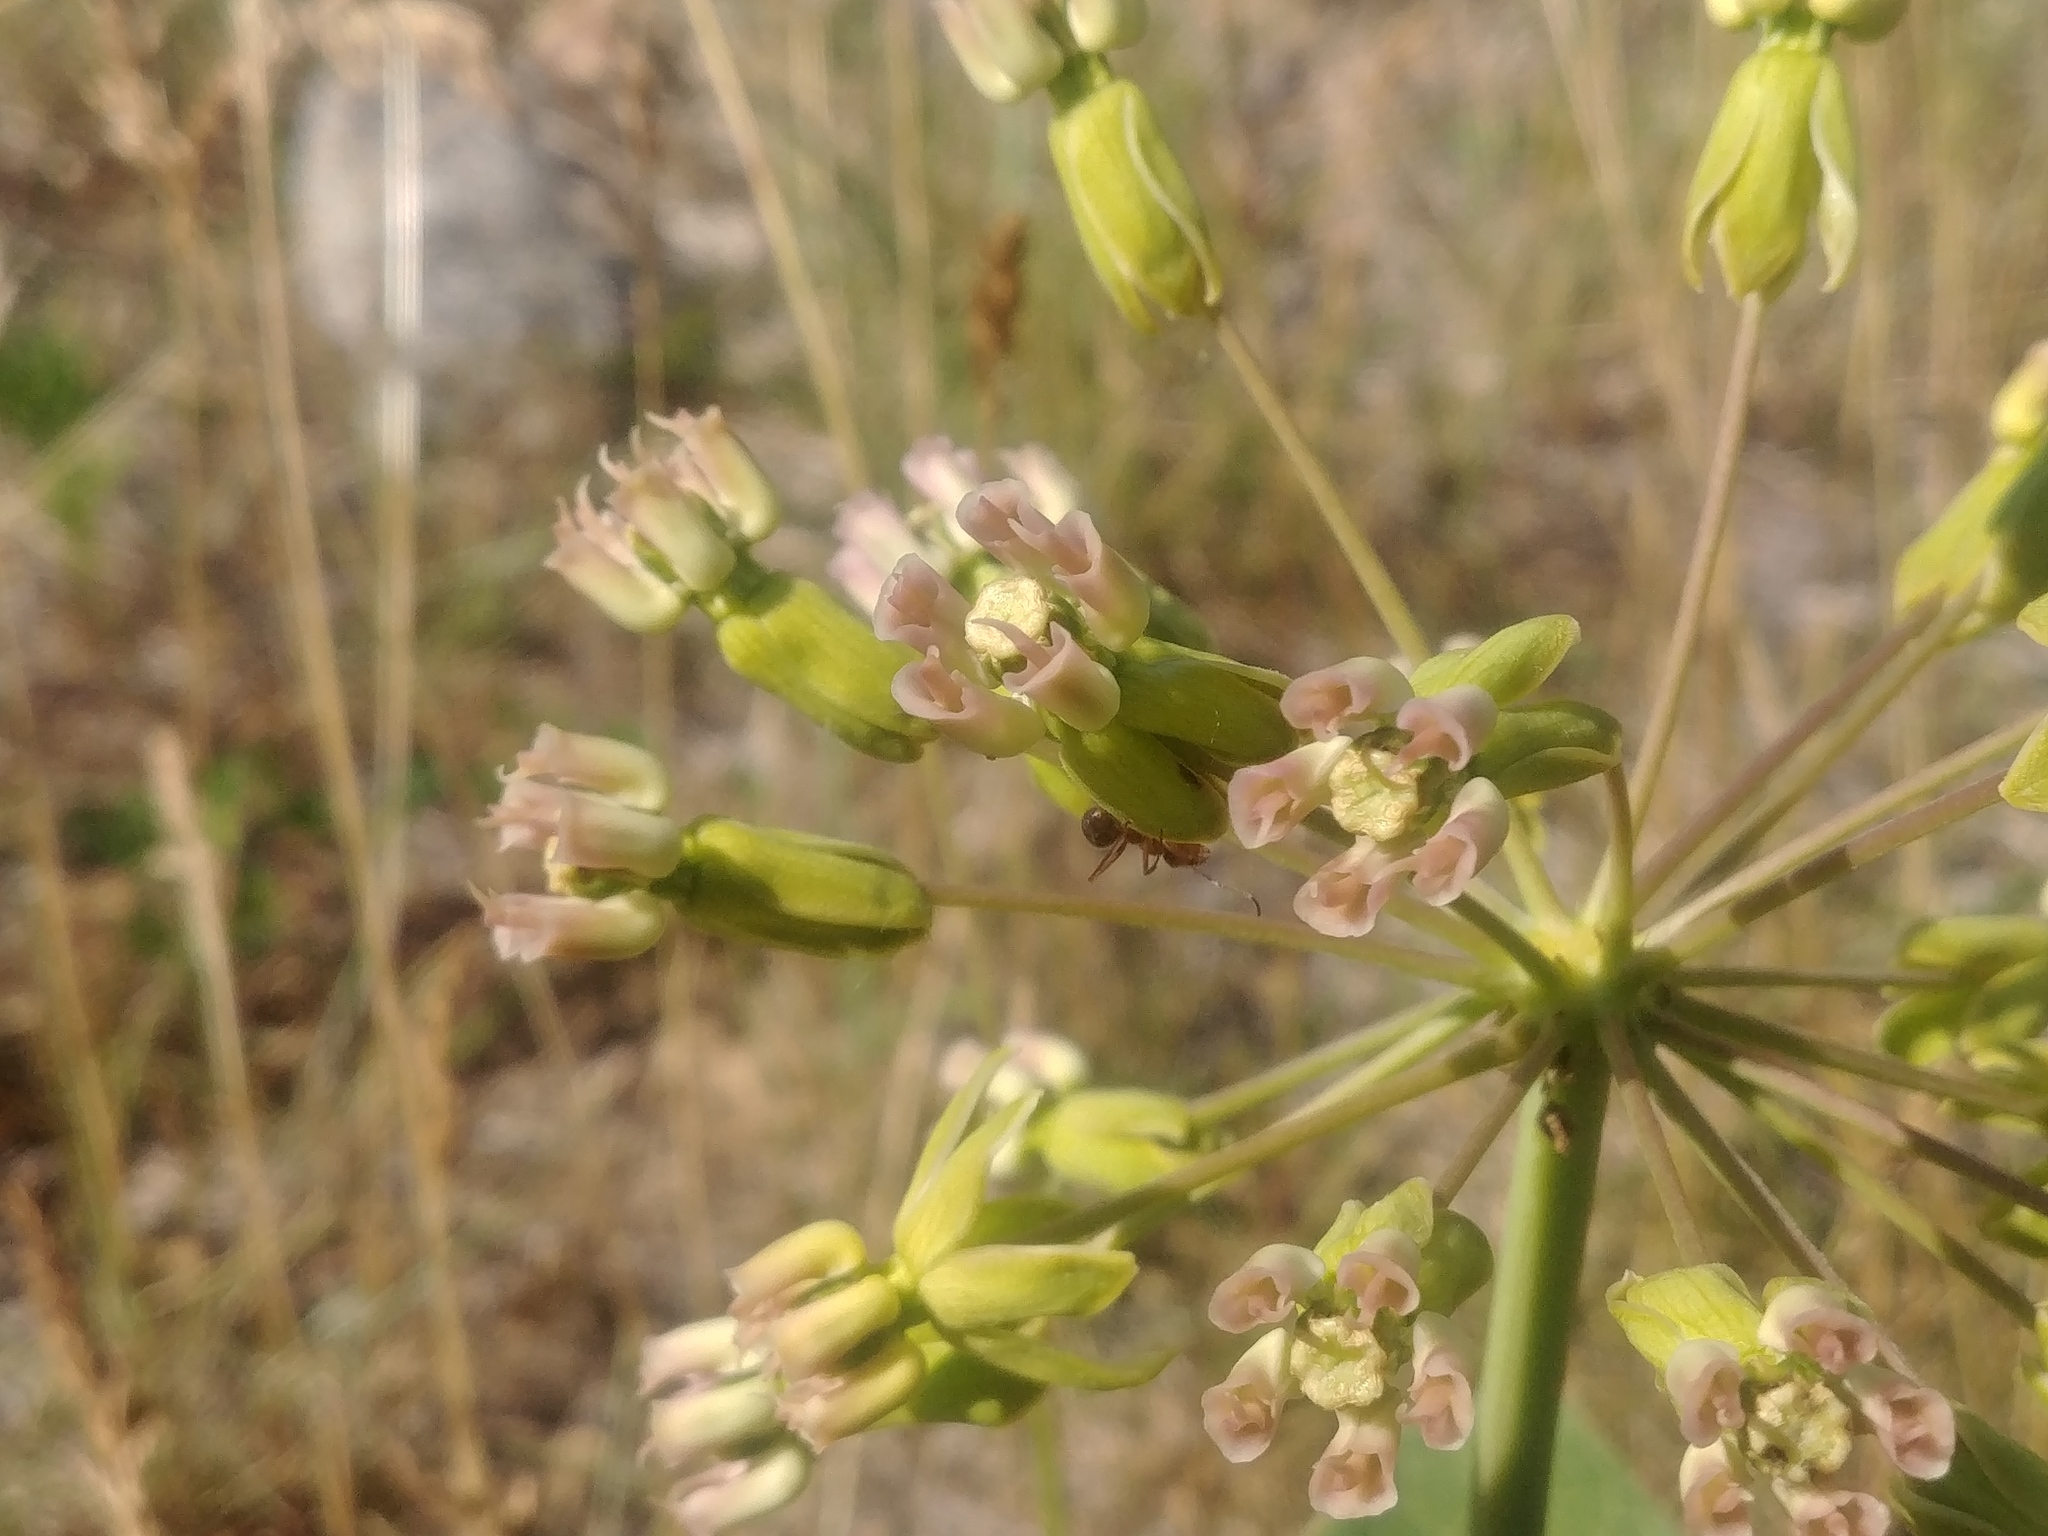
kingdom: Plantae
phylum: Tracheophyta
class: Magnoliopsida
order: Gentianales
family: Apocynaceae
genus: Asclepias
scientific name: Asclepias amplexicaulis
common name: Blunt-leaf milkweed
